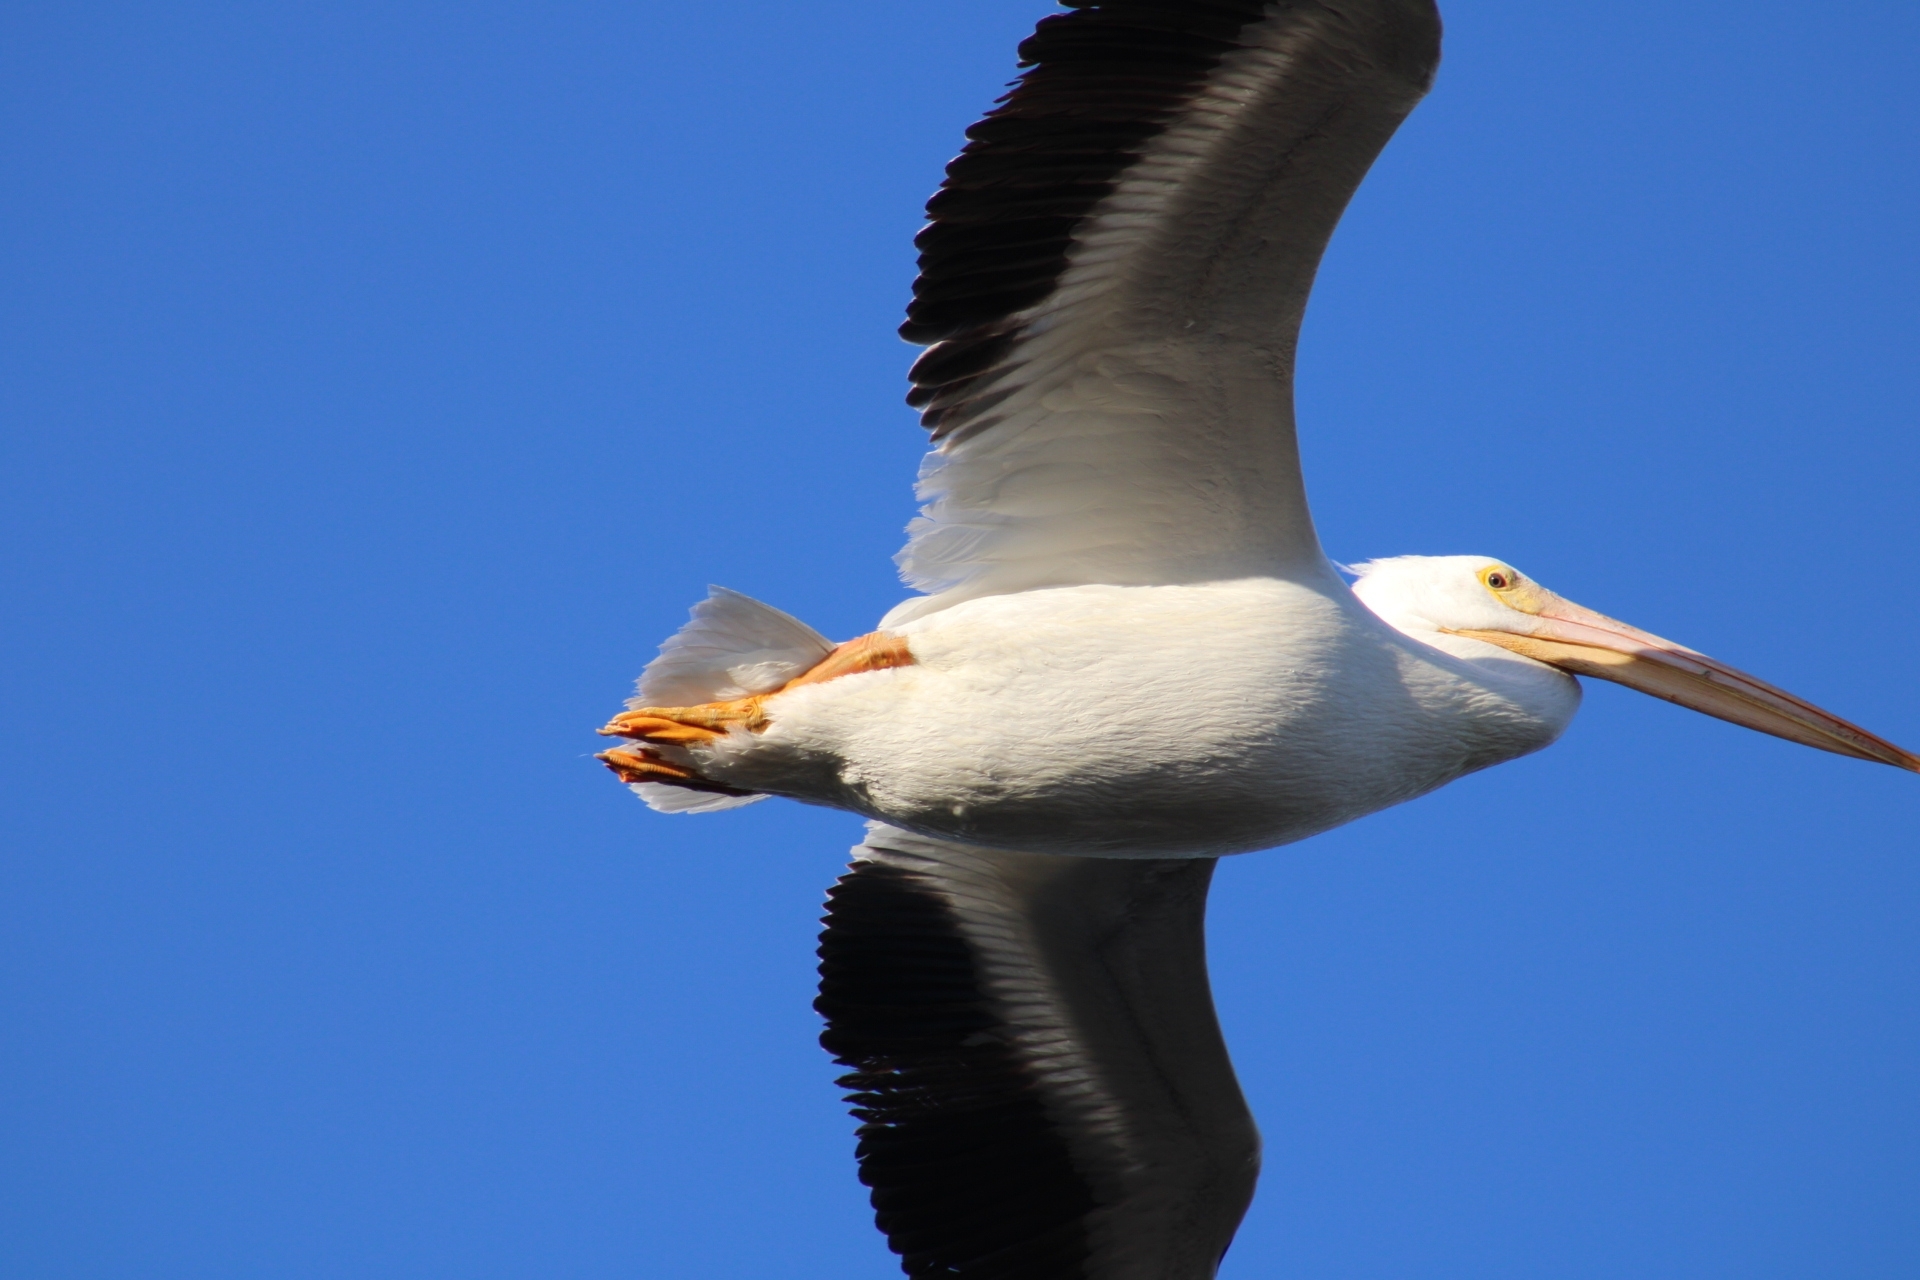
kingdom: Animalia
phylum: Chordata
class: Aves
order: Pelecaniformes
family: Pelecanidae
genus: Pelecanus
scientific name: Pelecanus erythrorhynchos
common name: American white pelican
